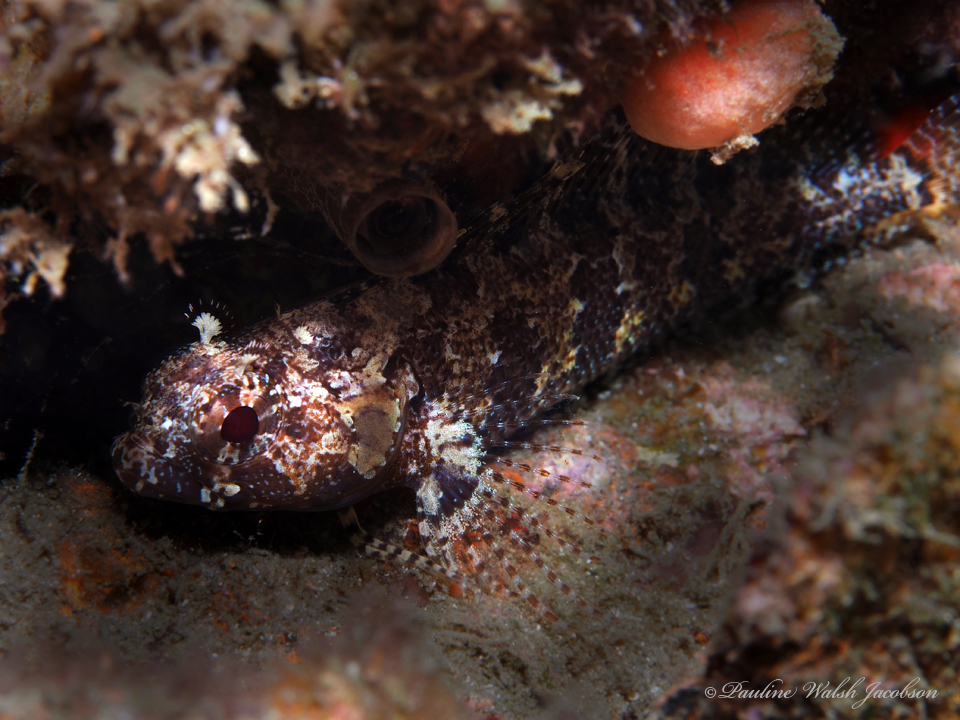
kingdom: Animalia
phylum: Chordata
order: Perciformes
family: Labrisomidae
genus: Gobioclinus
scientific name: Gobioclinus haitiensis
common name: Longfin blenny
